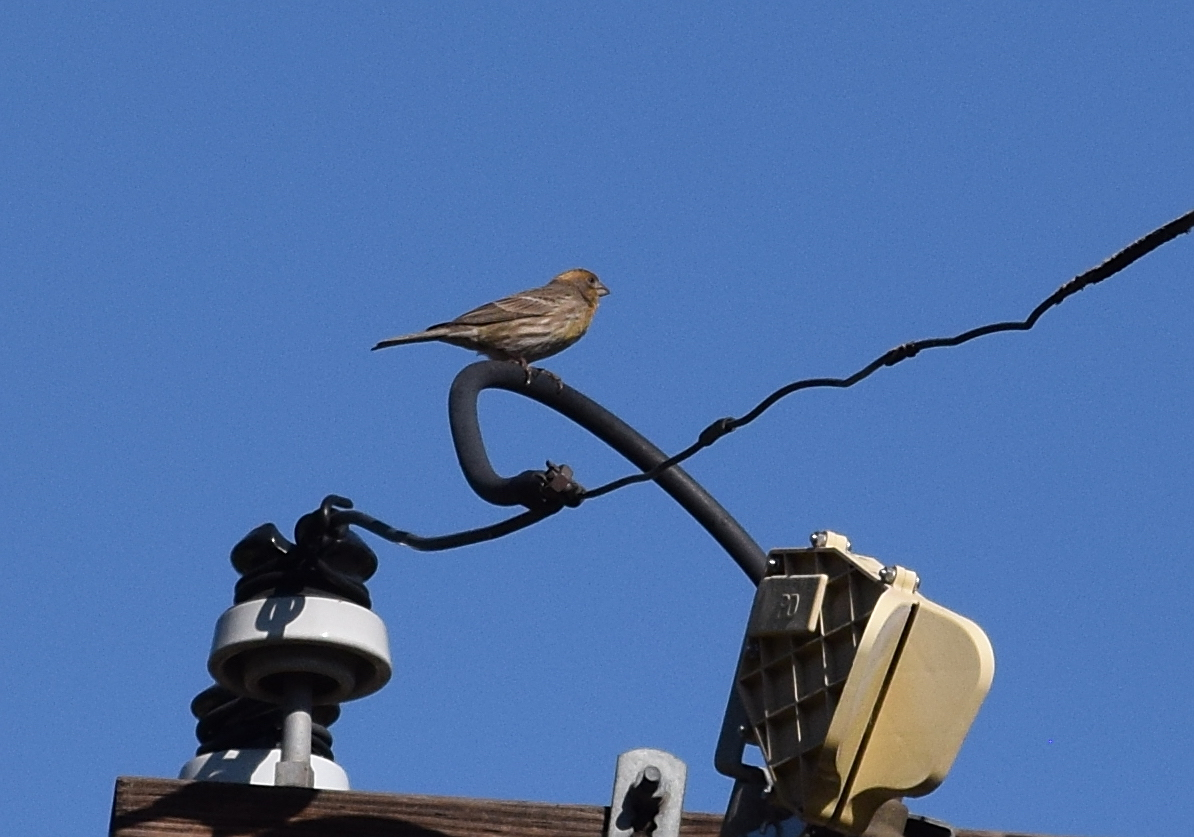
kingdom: Animalia
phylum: Chordata
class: Aves
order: Passeriformes
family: Fringillidae
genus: Haemorhous
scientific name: Haemorhous mexicanus
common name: House finch
